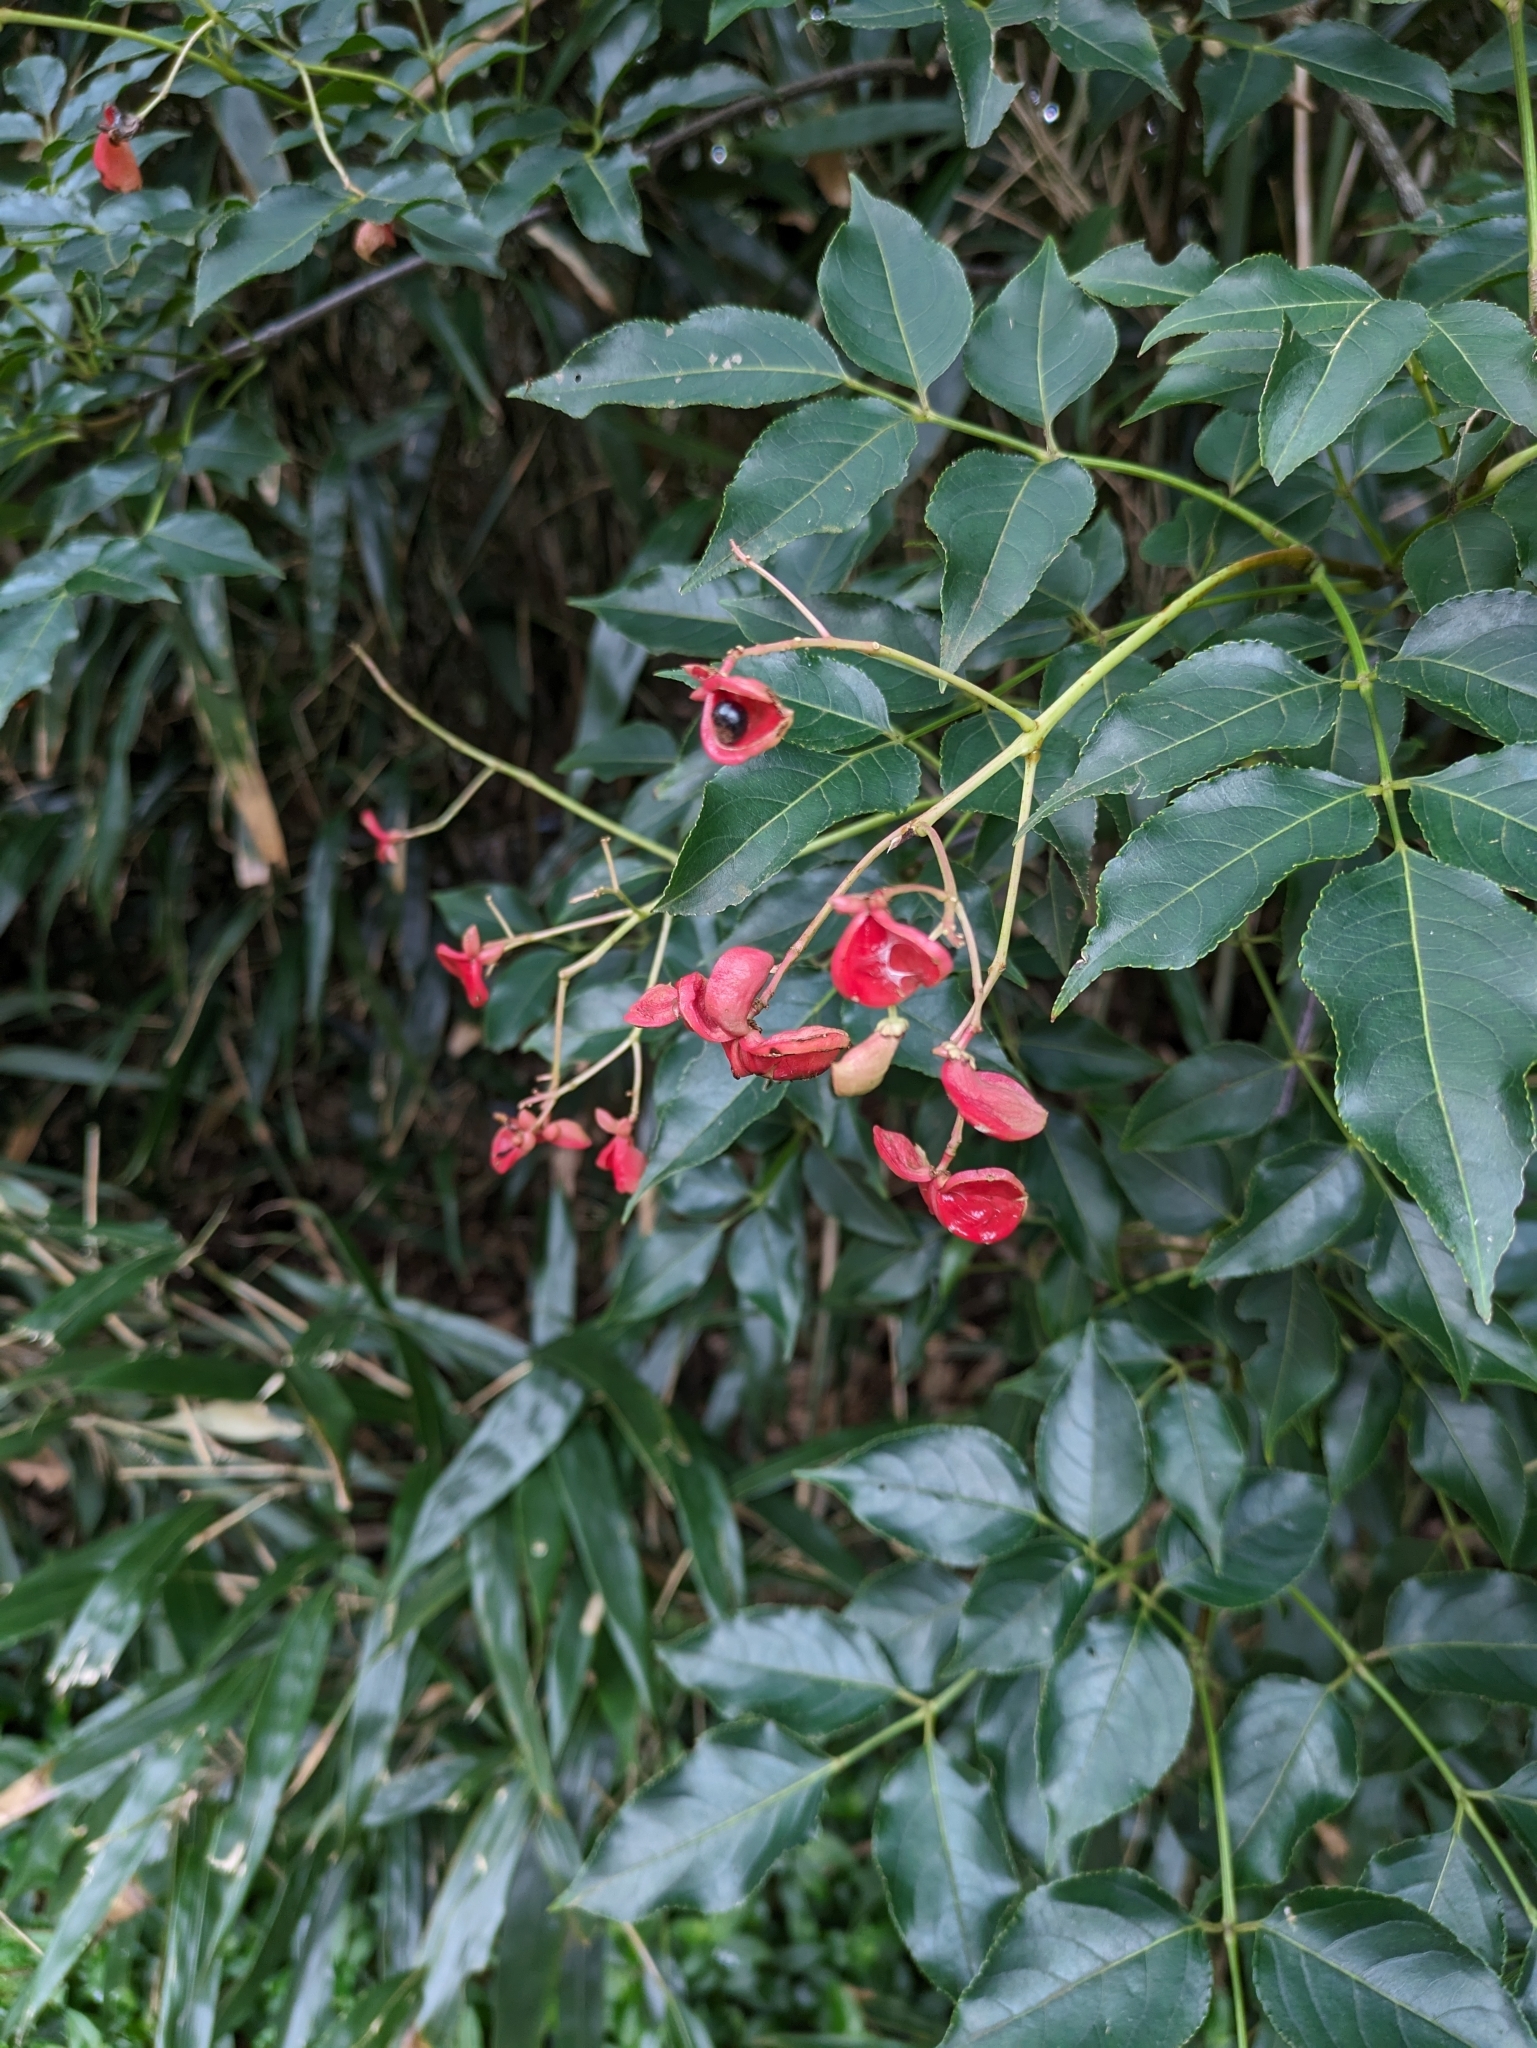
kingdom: Plantae
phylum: Tracheophyta
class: Magnoliopsida
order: Crossosomatales
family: Staphyleaceae
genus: Staphylea
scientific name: Staphylea japonica
